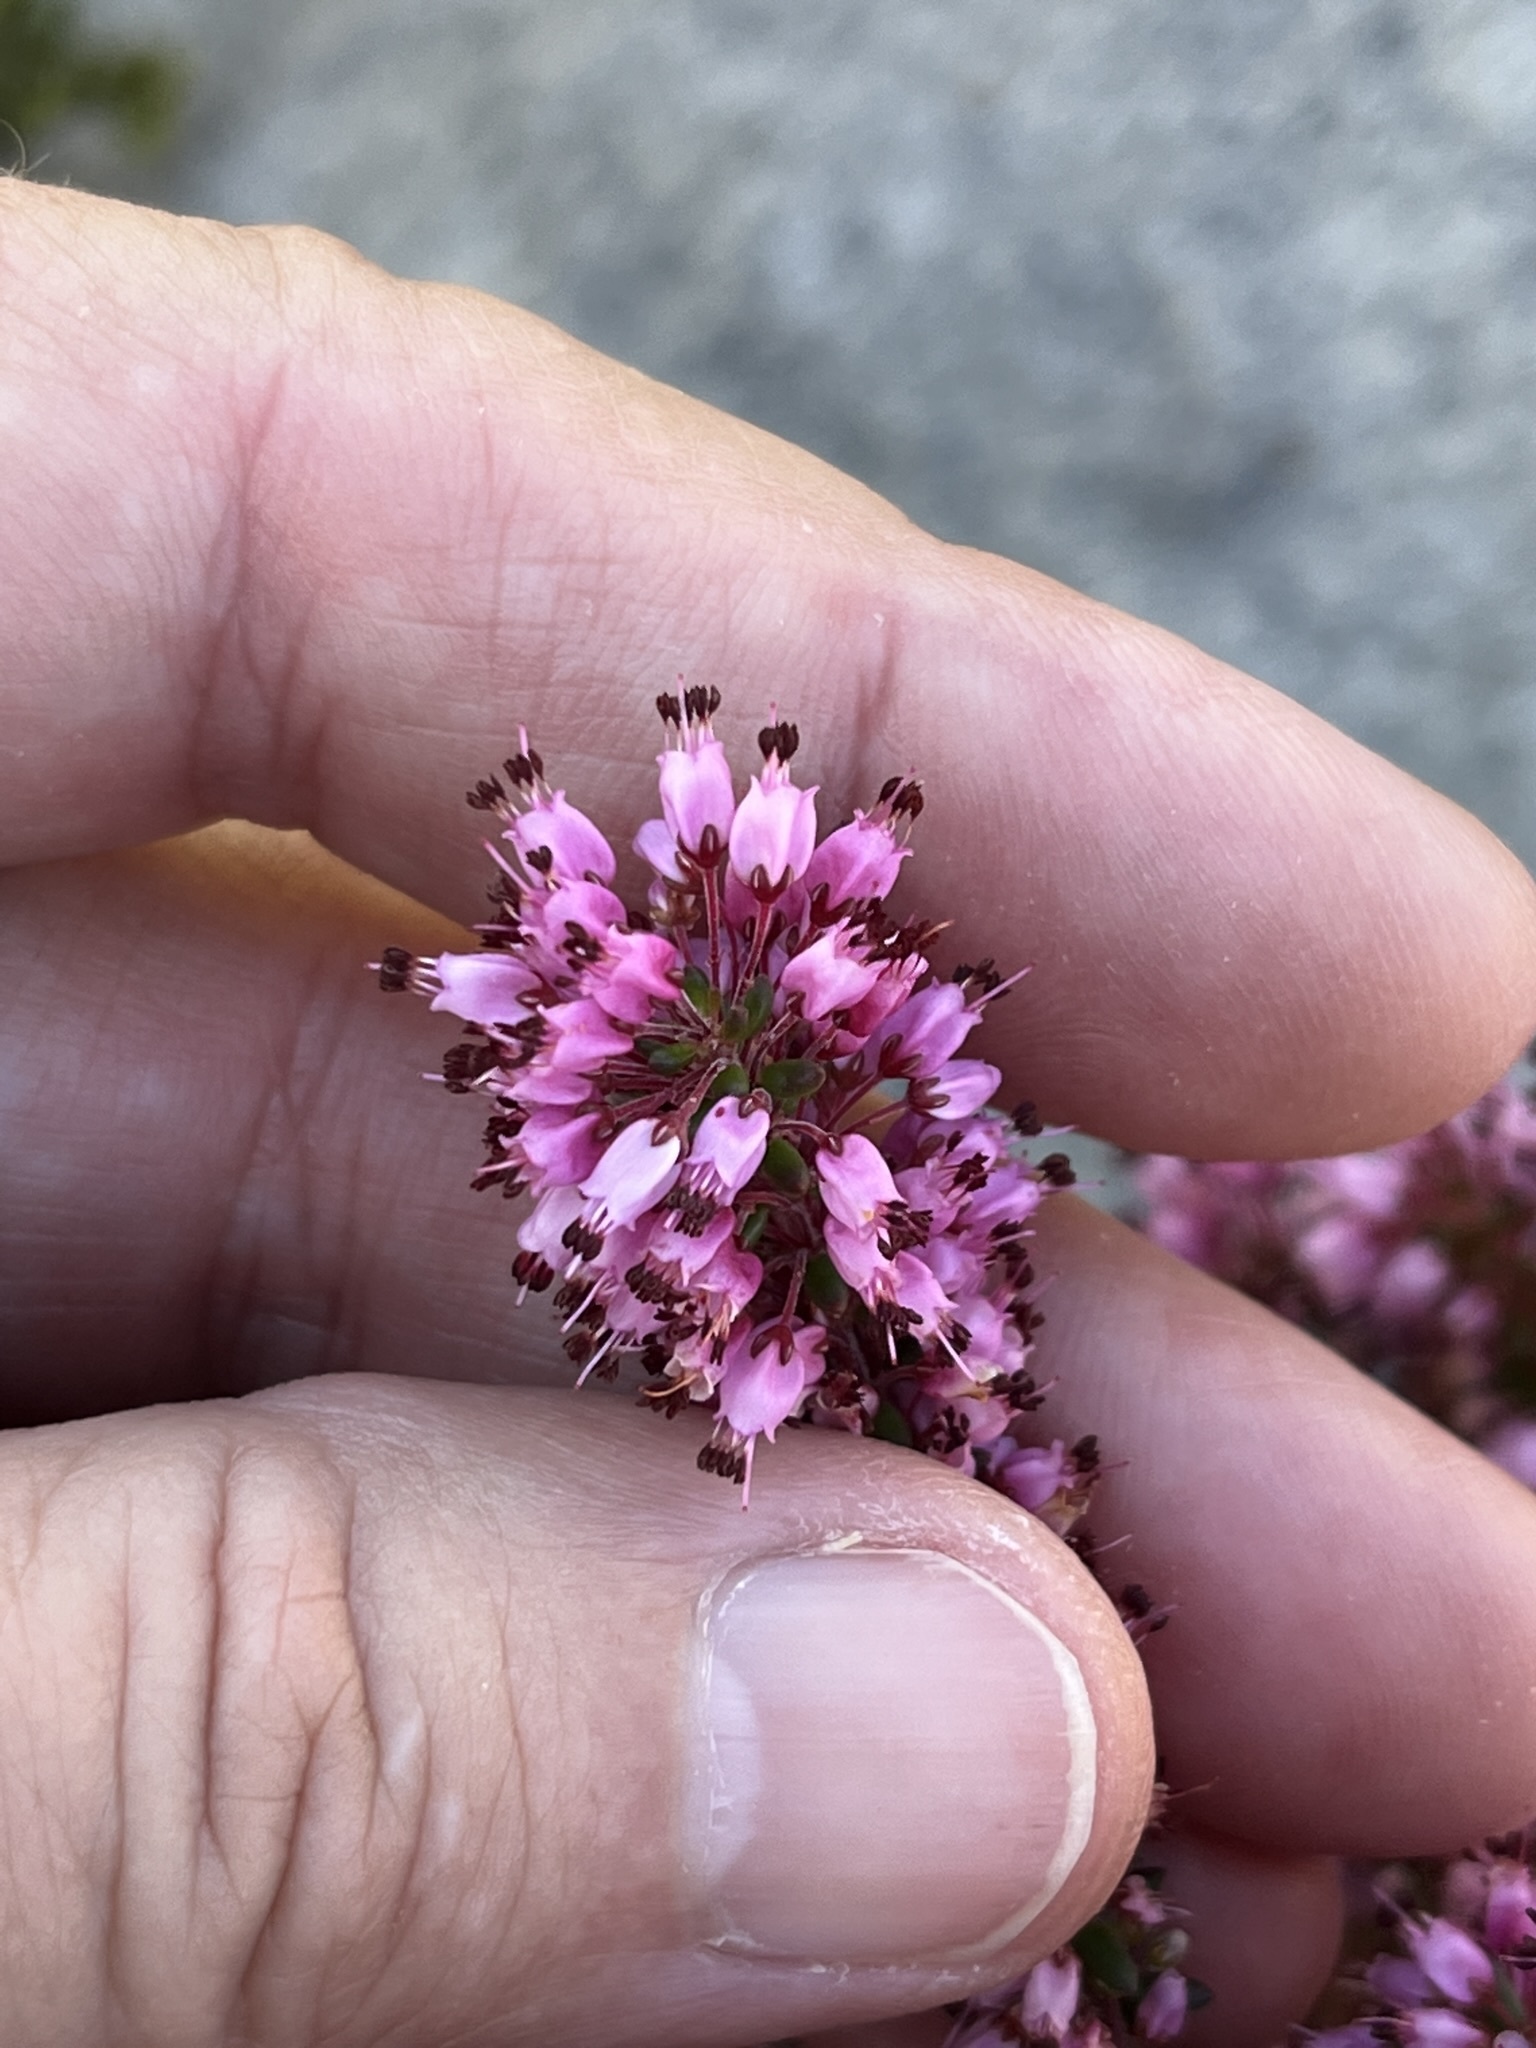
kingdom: Plantae
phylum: Tracheophyta
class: Magnoliopsida
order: Ericales
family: Ericaceae
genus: Erica
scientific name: Erica nudiflora
